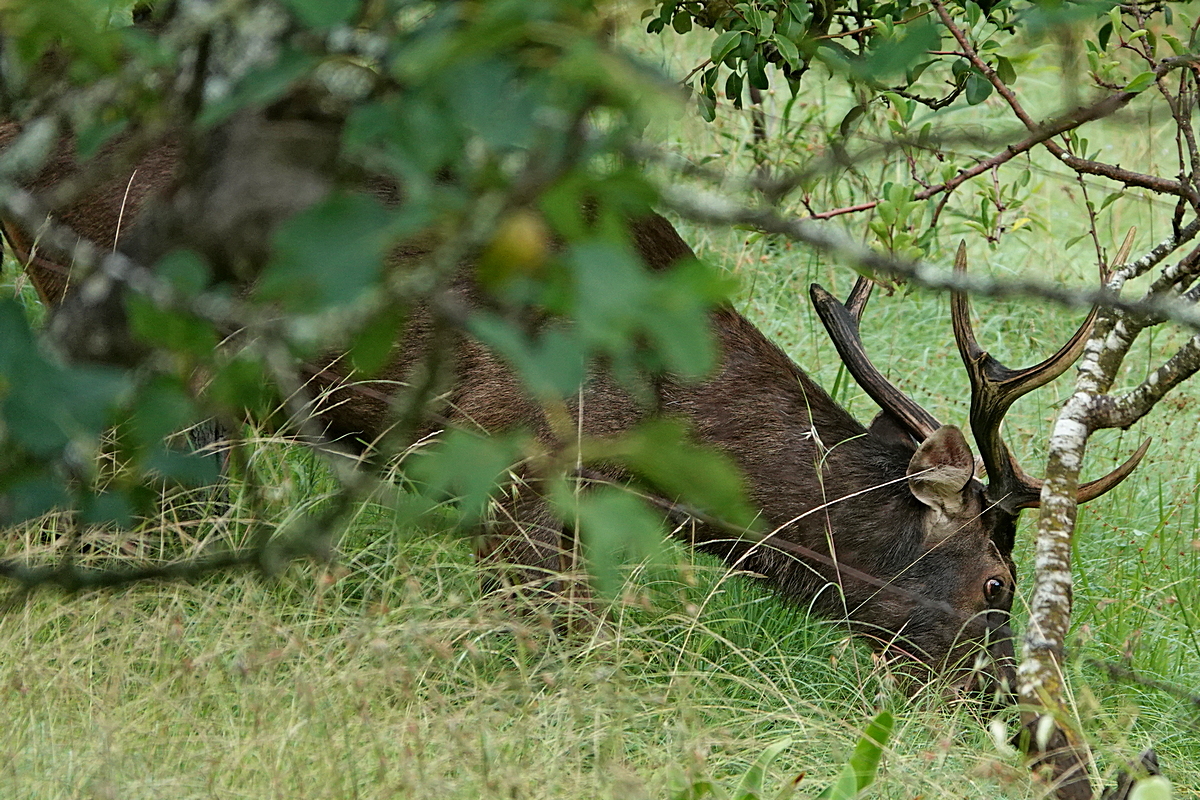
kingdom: Animalia
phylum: Chordata
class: Mammalia
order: Artiodactyla
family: Cervidae
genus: Rusa
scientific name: Rusa unicolor
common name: Sambar
